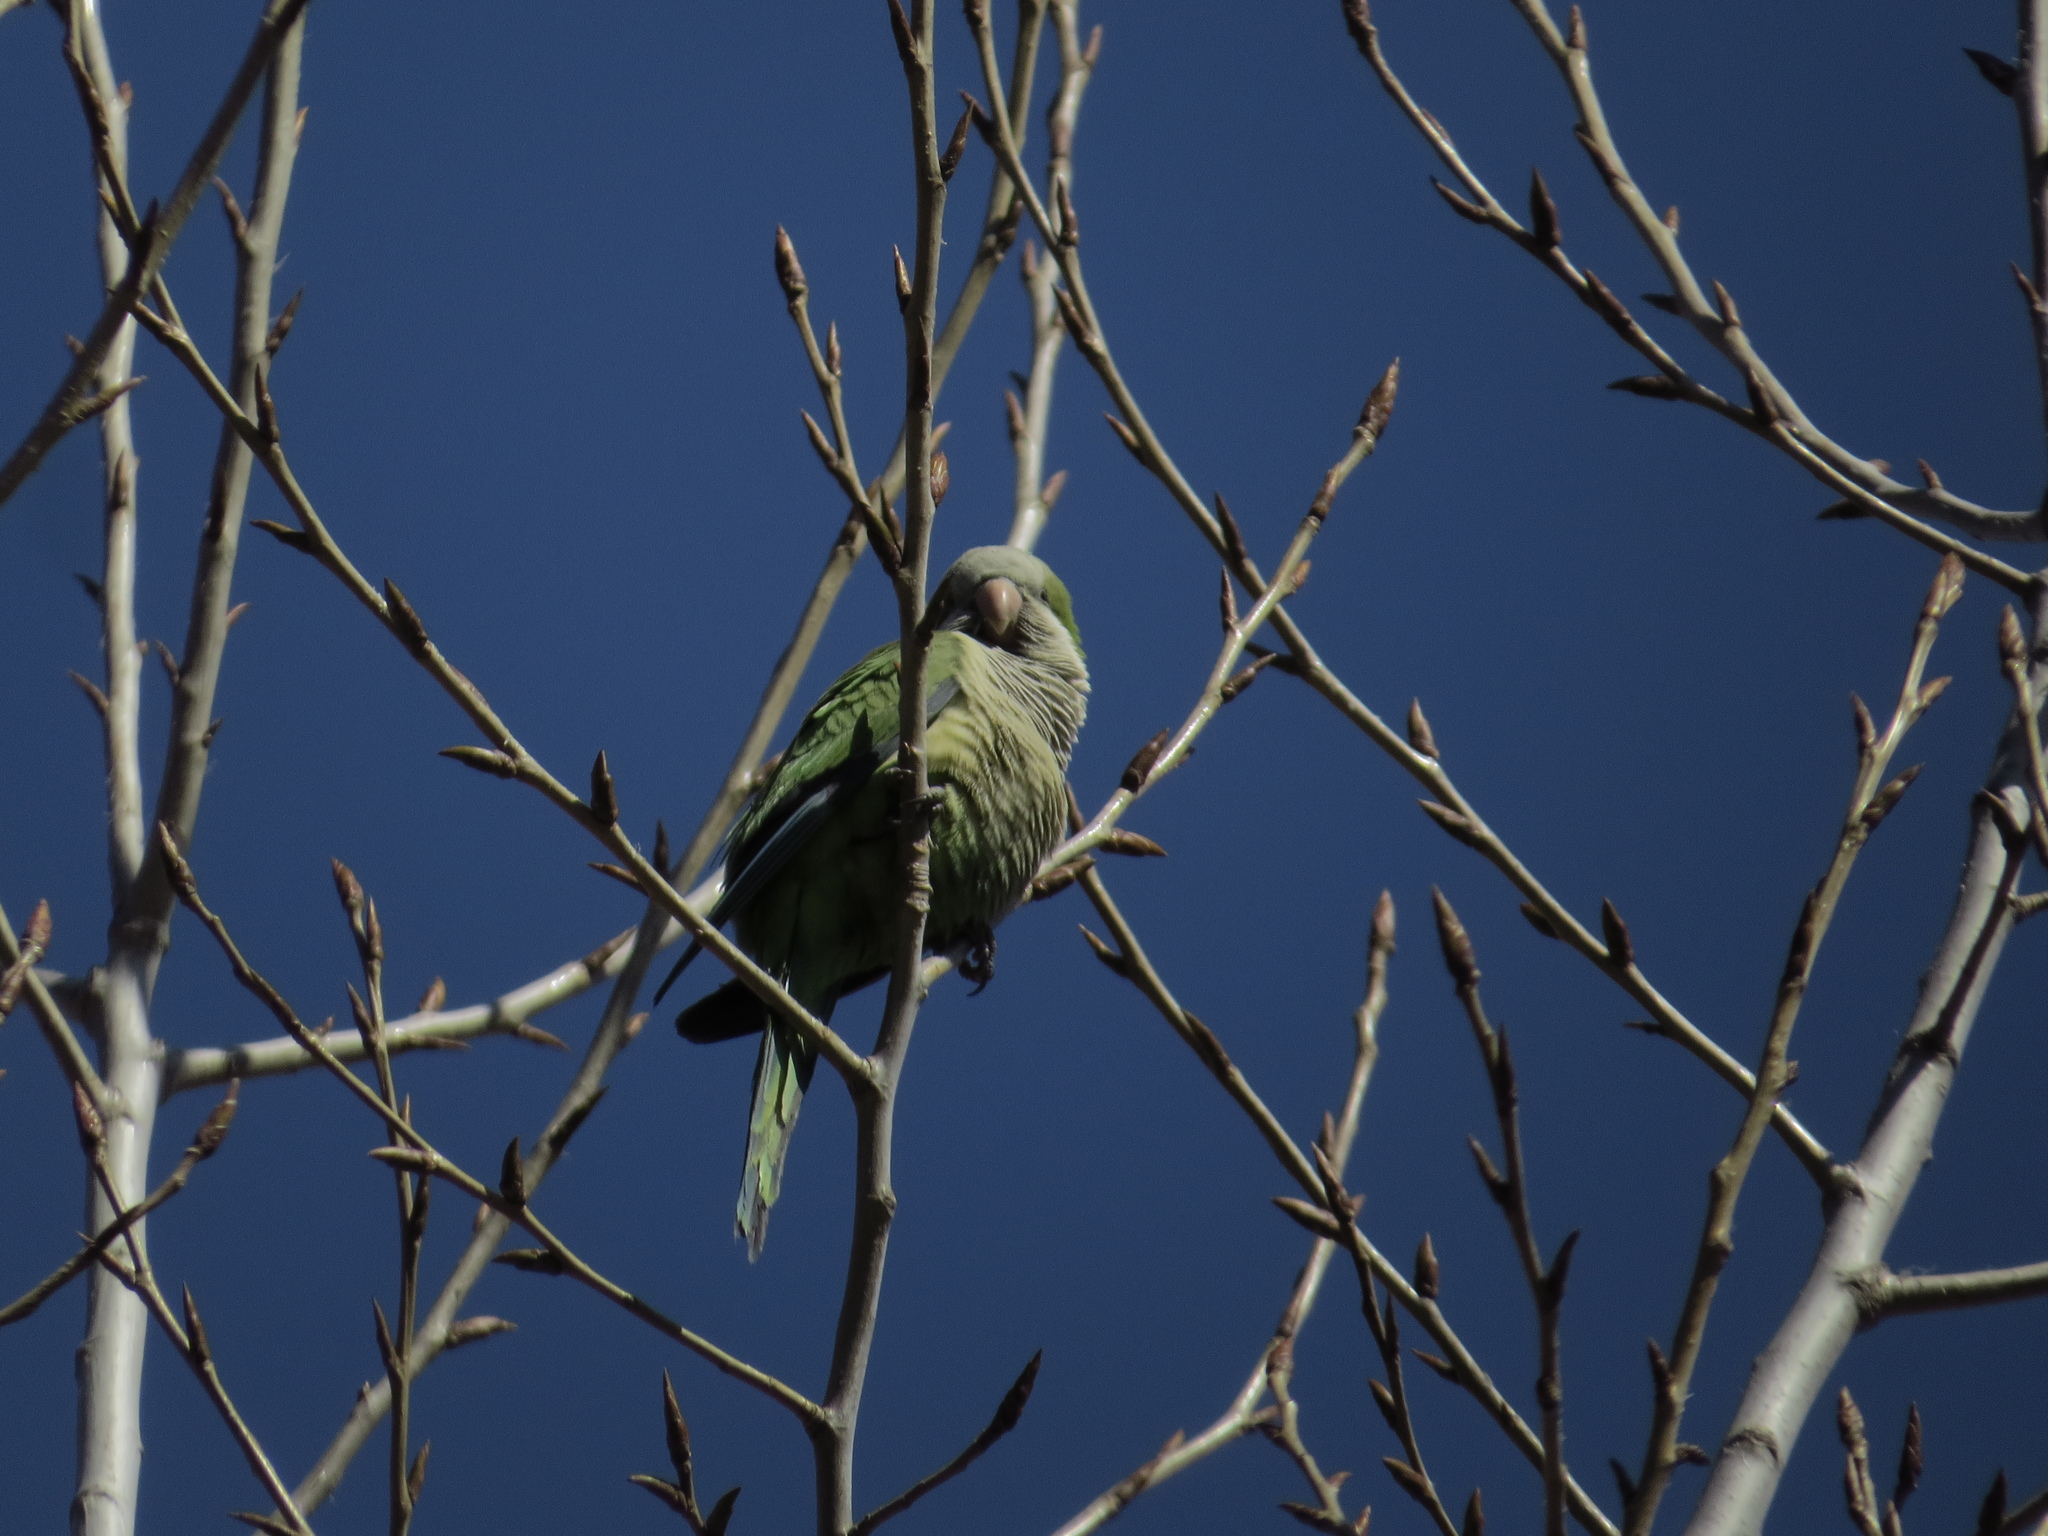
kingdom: Animalia
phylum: Chordata
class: Aves
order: Psittaciformes
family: Psittacidae
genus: Myiopsitta
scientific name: Myiopsitta monachus
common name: Monk parakeet
